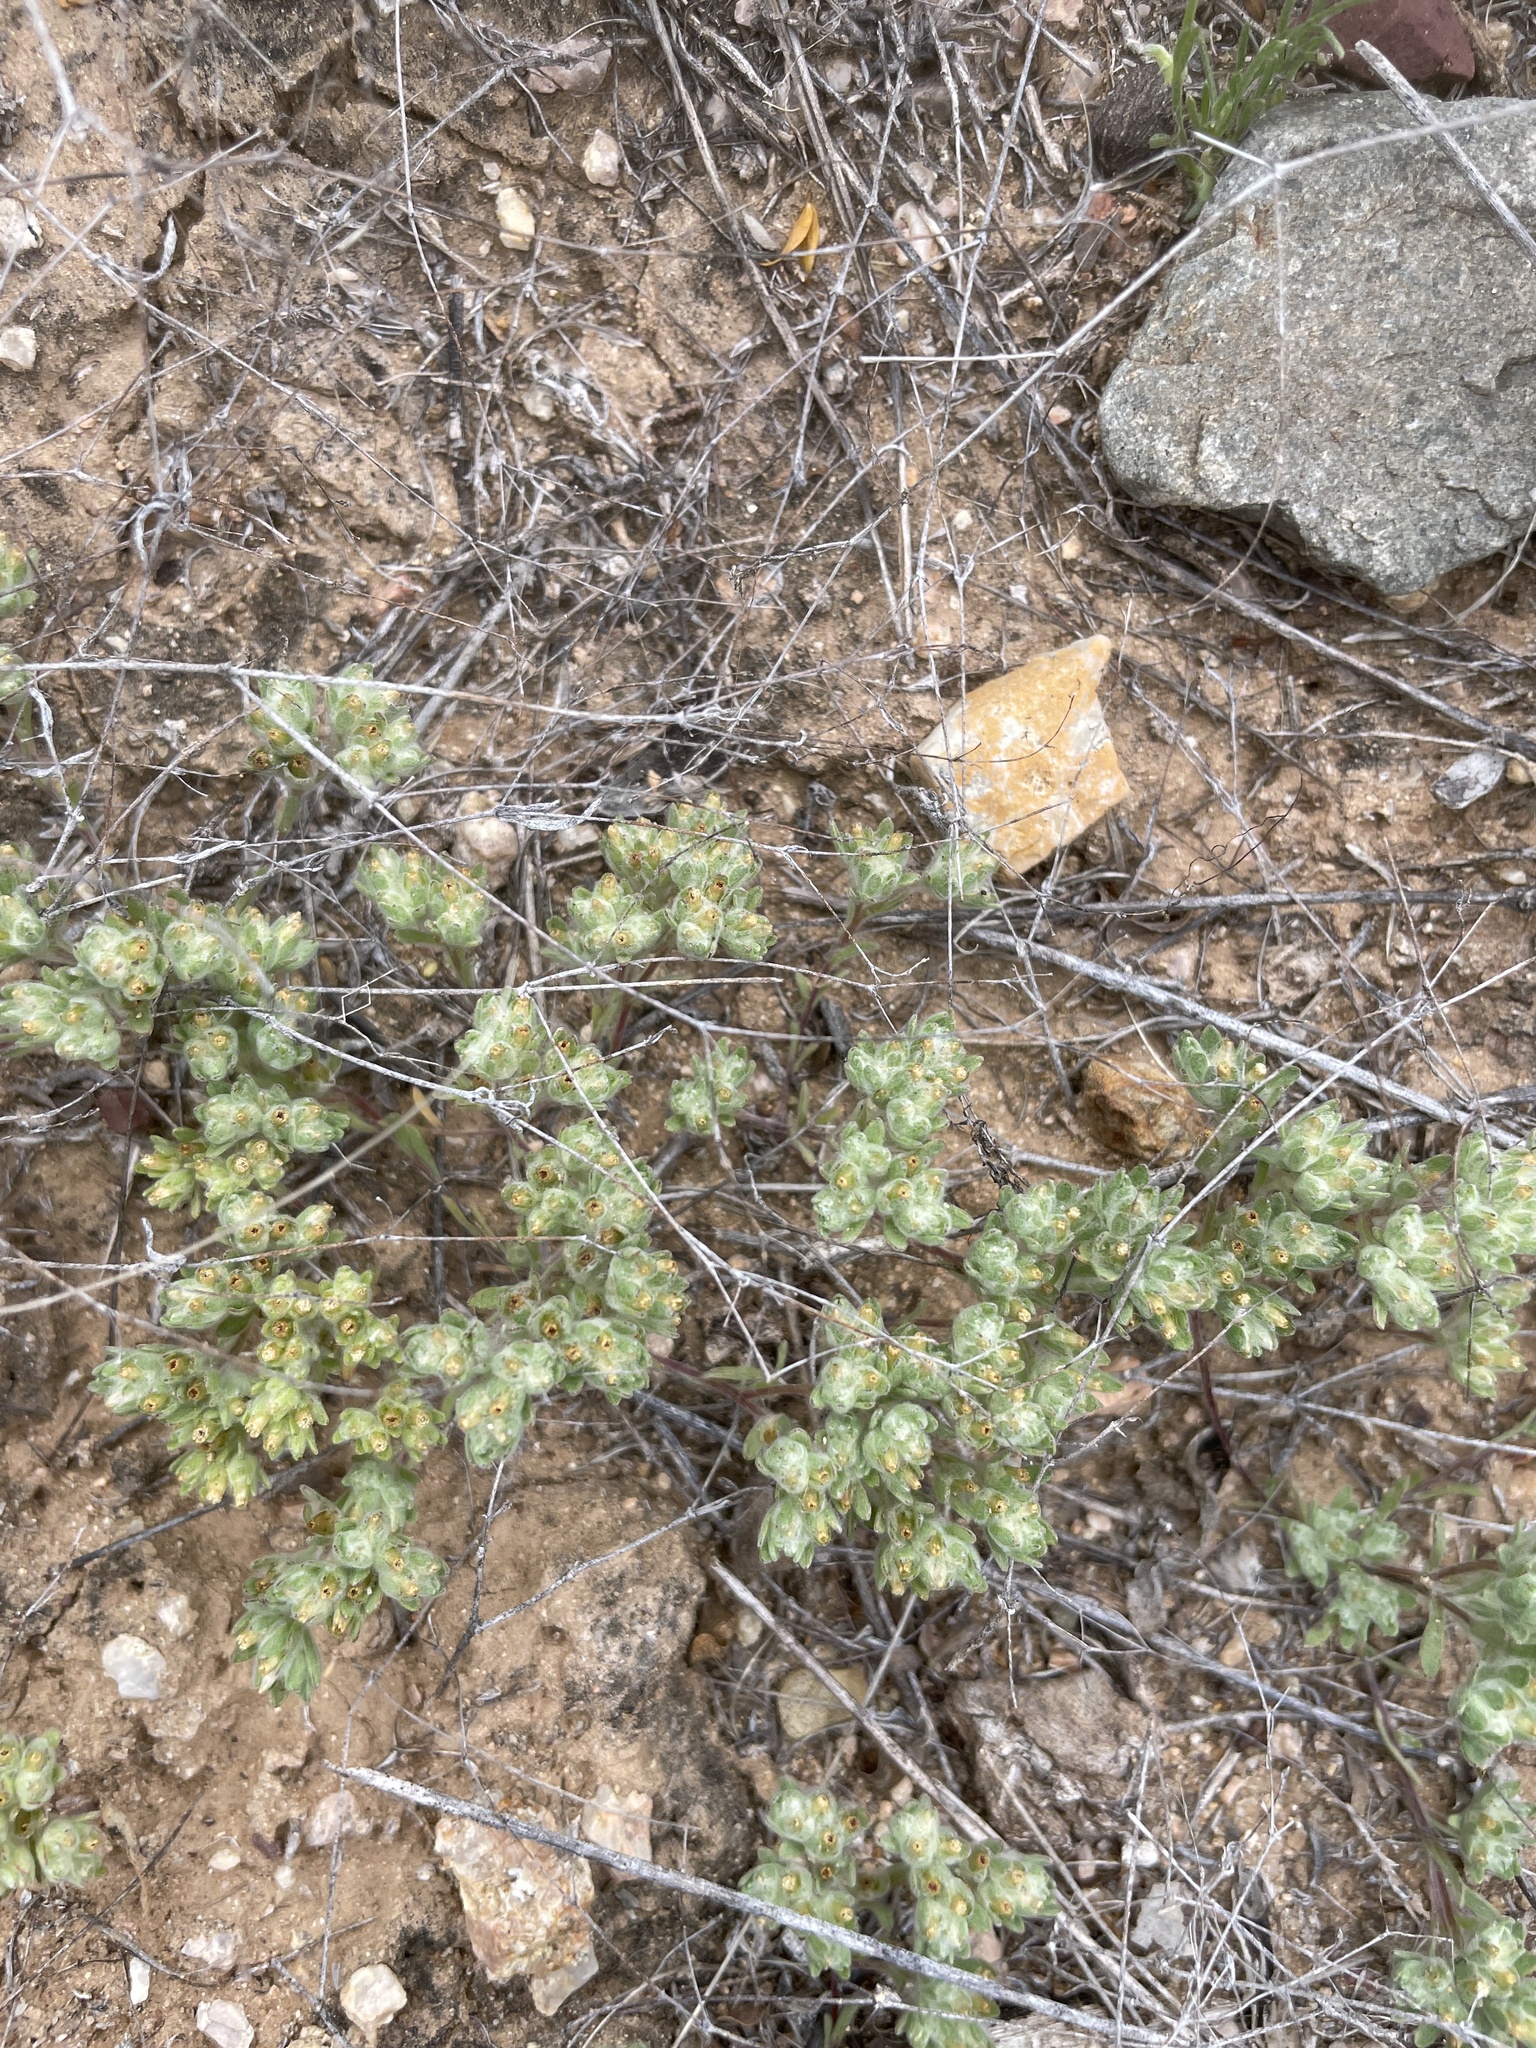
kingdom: Plantae
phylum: Tracheophyta
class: Magnoliopsida
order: Asterales
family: Asteraceae
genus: Lasiopogon
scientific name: Lasiopogon glomerulatus
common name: Green cat thorn
